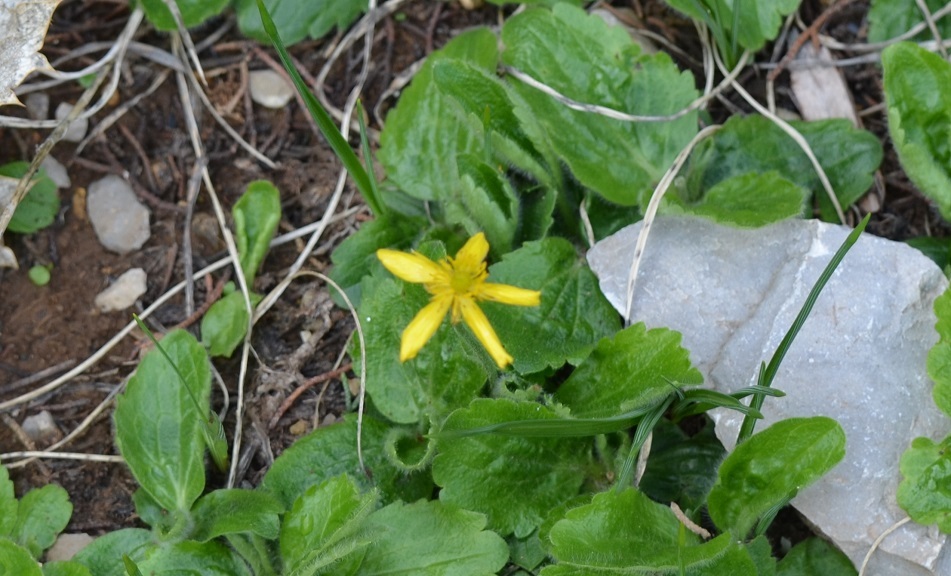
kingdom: Plantae
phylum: Tracheophyta
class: Magnoliopsida
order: Ranunculales
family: Ranunculaceae
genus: Ranunculus
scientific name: Ranunculus bullatus
